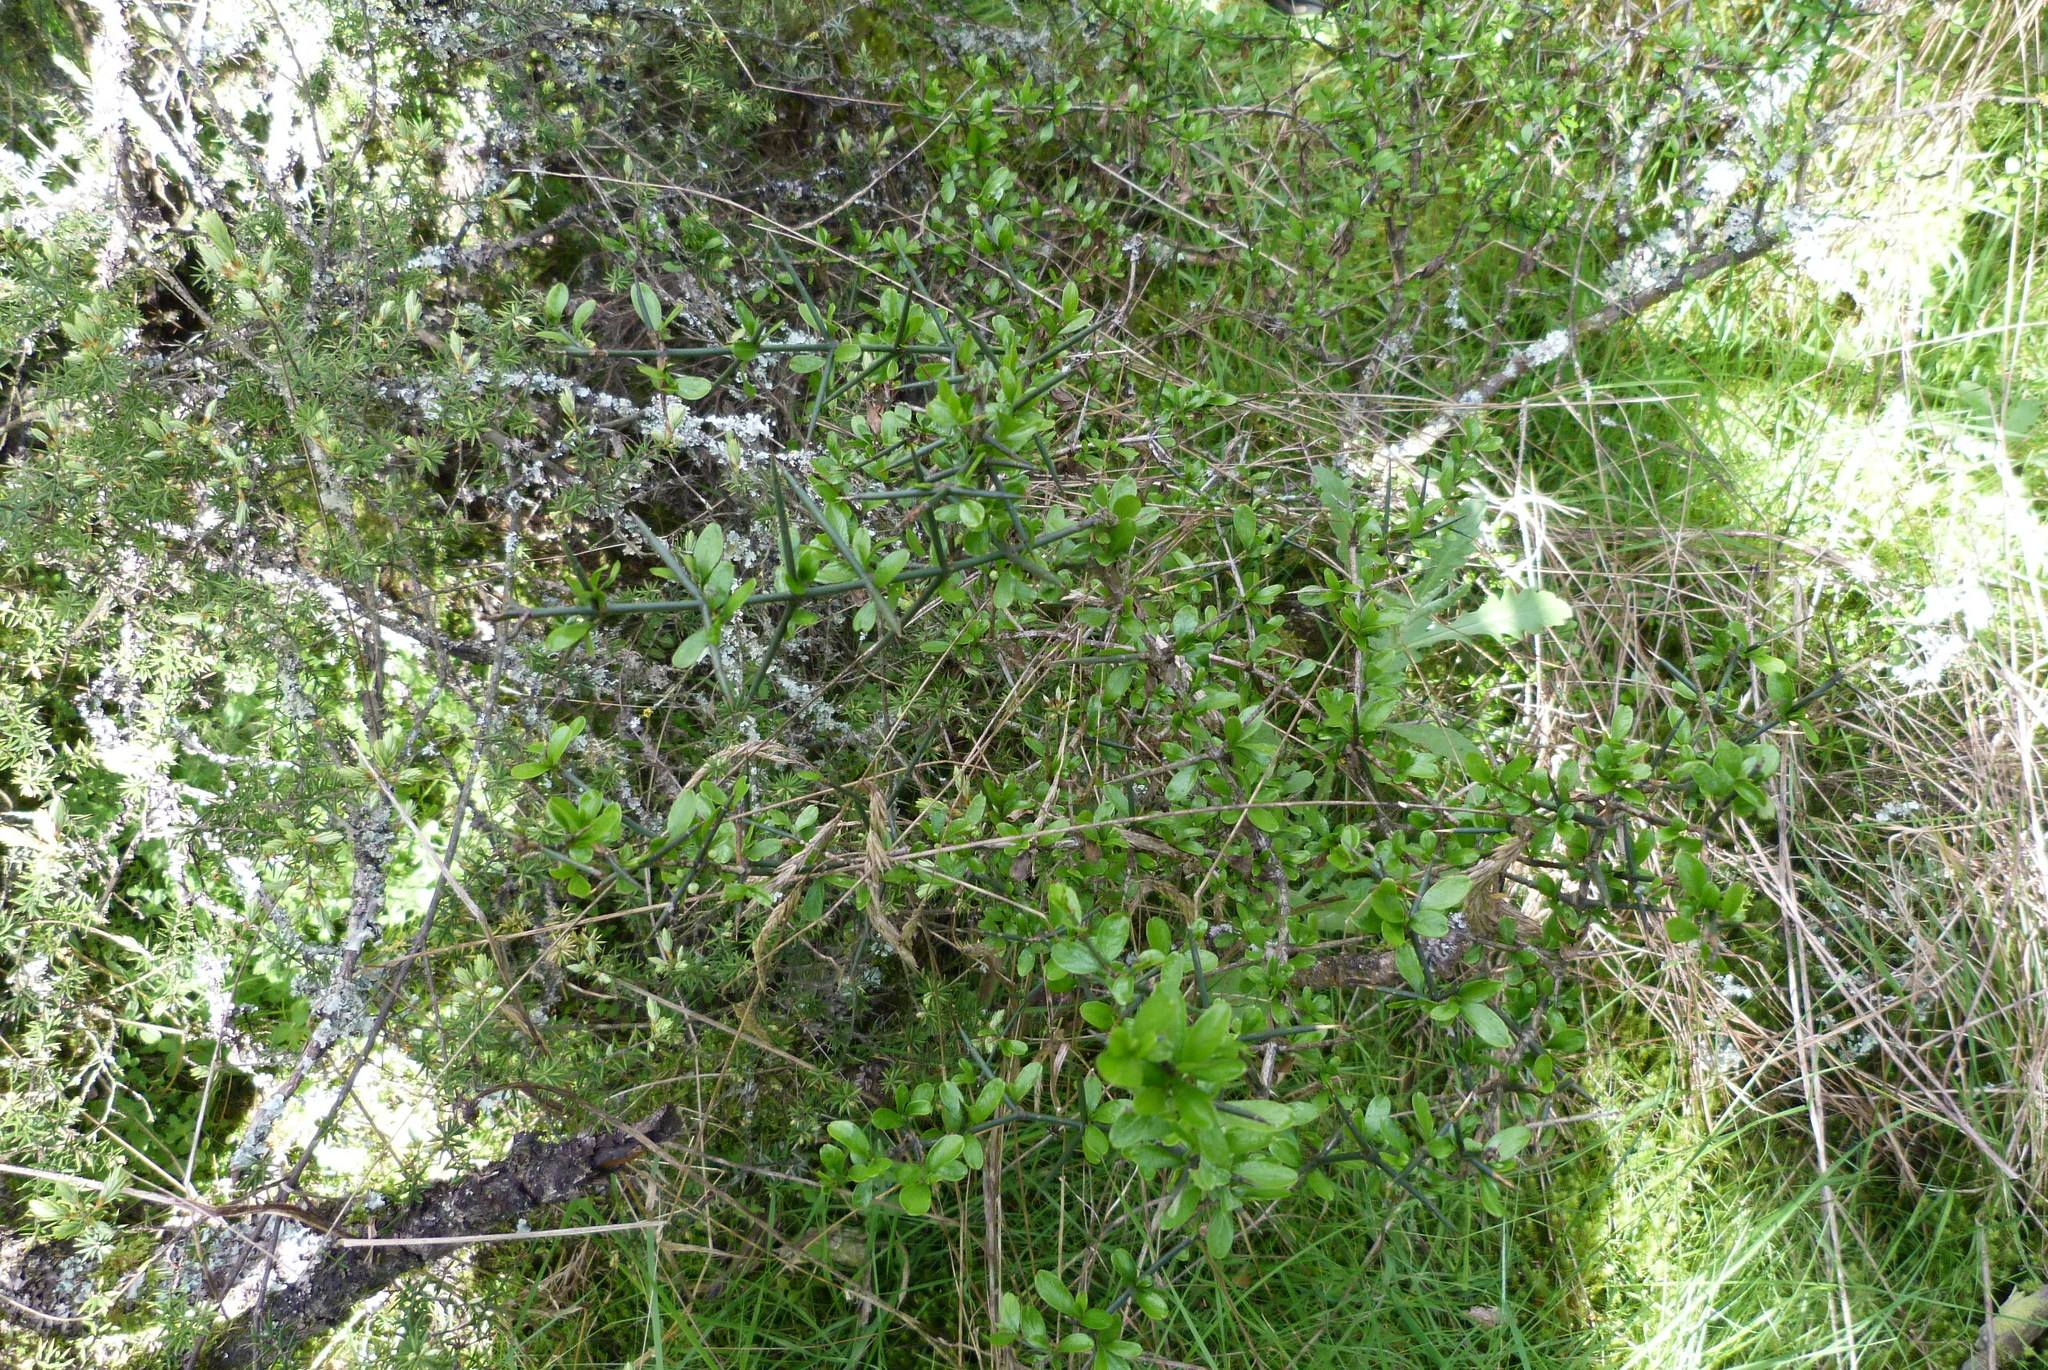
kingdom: Plantae
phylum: Tracheophyta
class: Magnoliopsida
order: Rosales
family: Rhamnaceae
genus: Discaria
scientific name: Discaria toumatou
